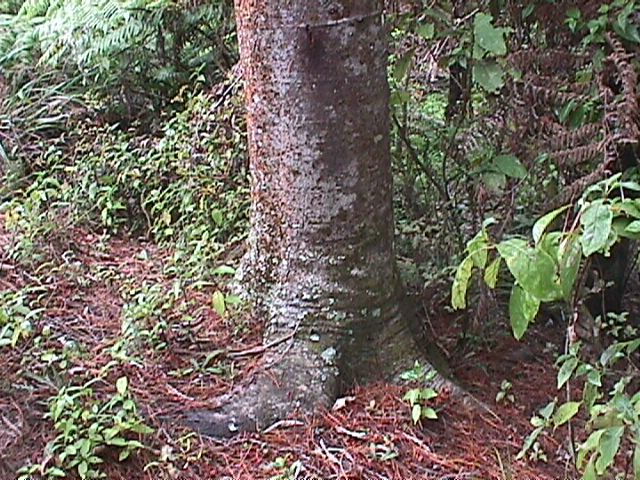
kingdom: Plantae
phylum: Tracheophyta
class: Pinopsida
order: Pinales
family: Phyllocladaceae
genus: Phyllocladus
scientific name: Phyllocladus trichomanoides
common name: Celery pine
